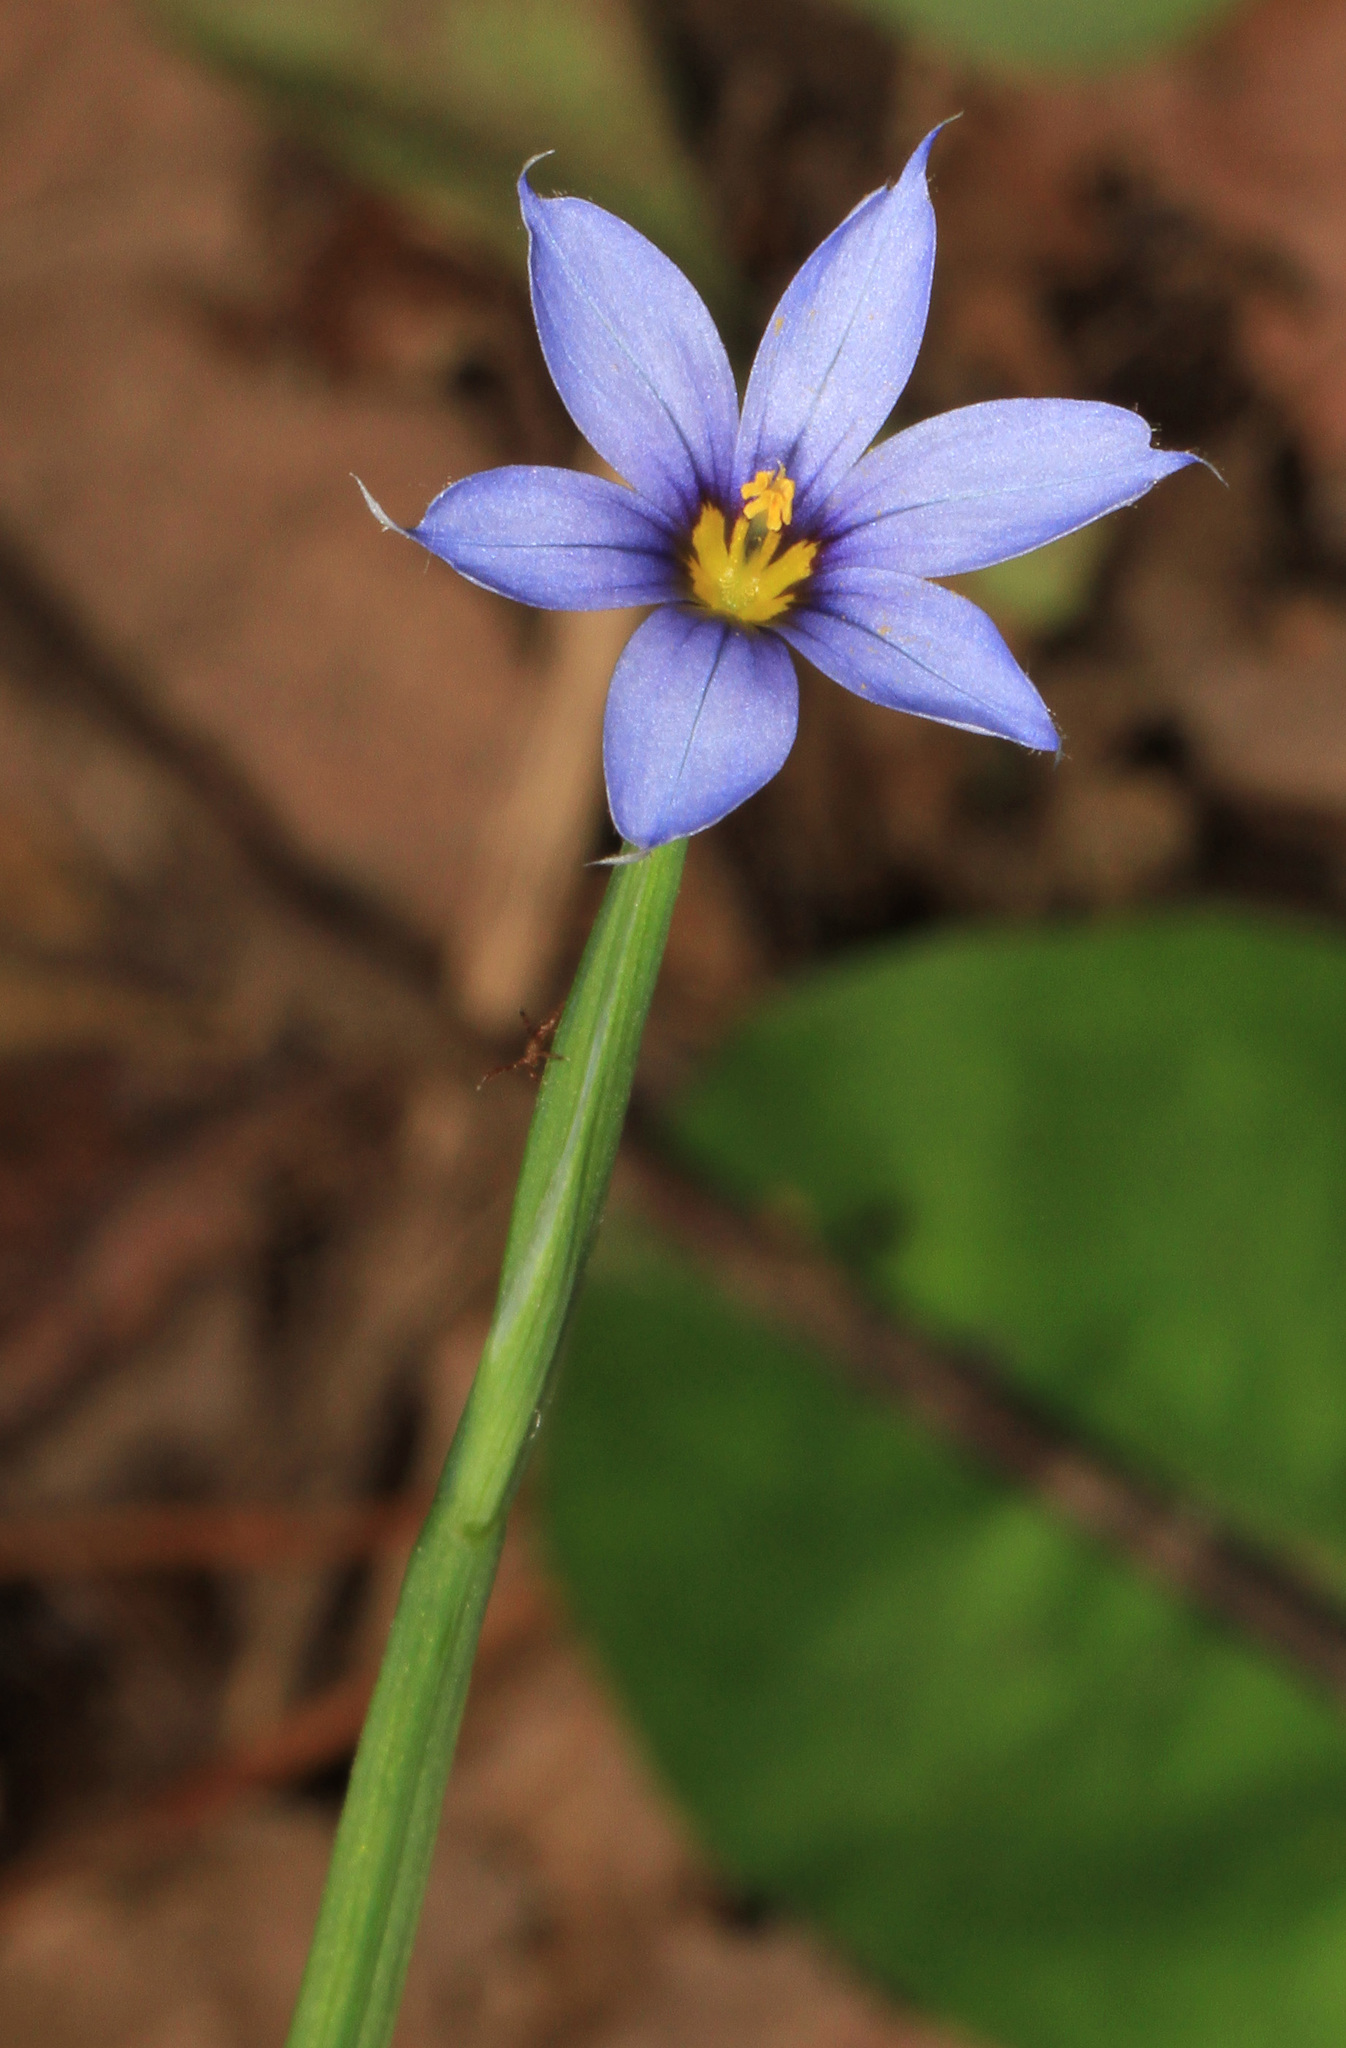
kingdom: Plantae
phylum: Tracheophyta
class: Liliopsida
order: Asparagales
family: Iridaceae
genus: Sisyrinchium
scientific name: Sisyrinchium angustifolium
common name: Narrow-leaf blue-eyed-grass
